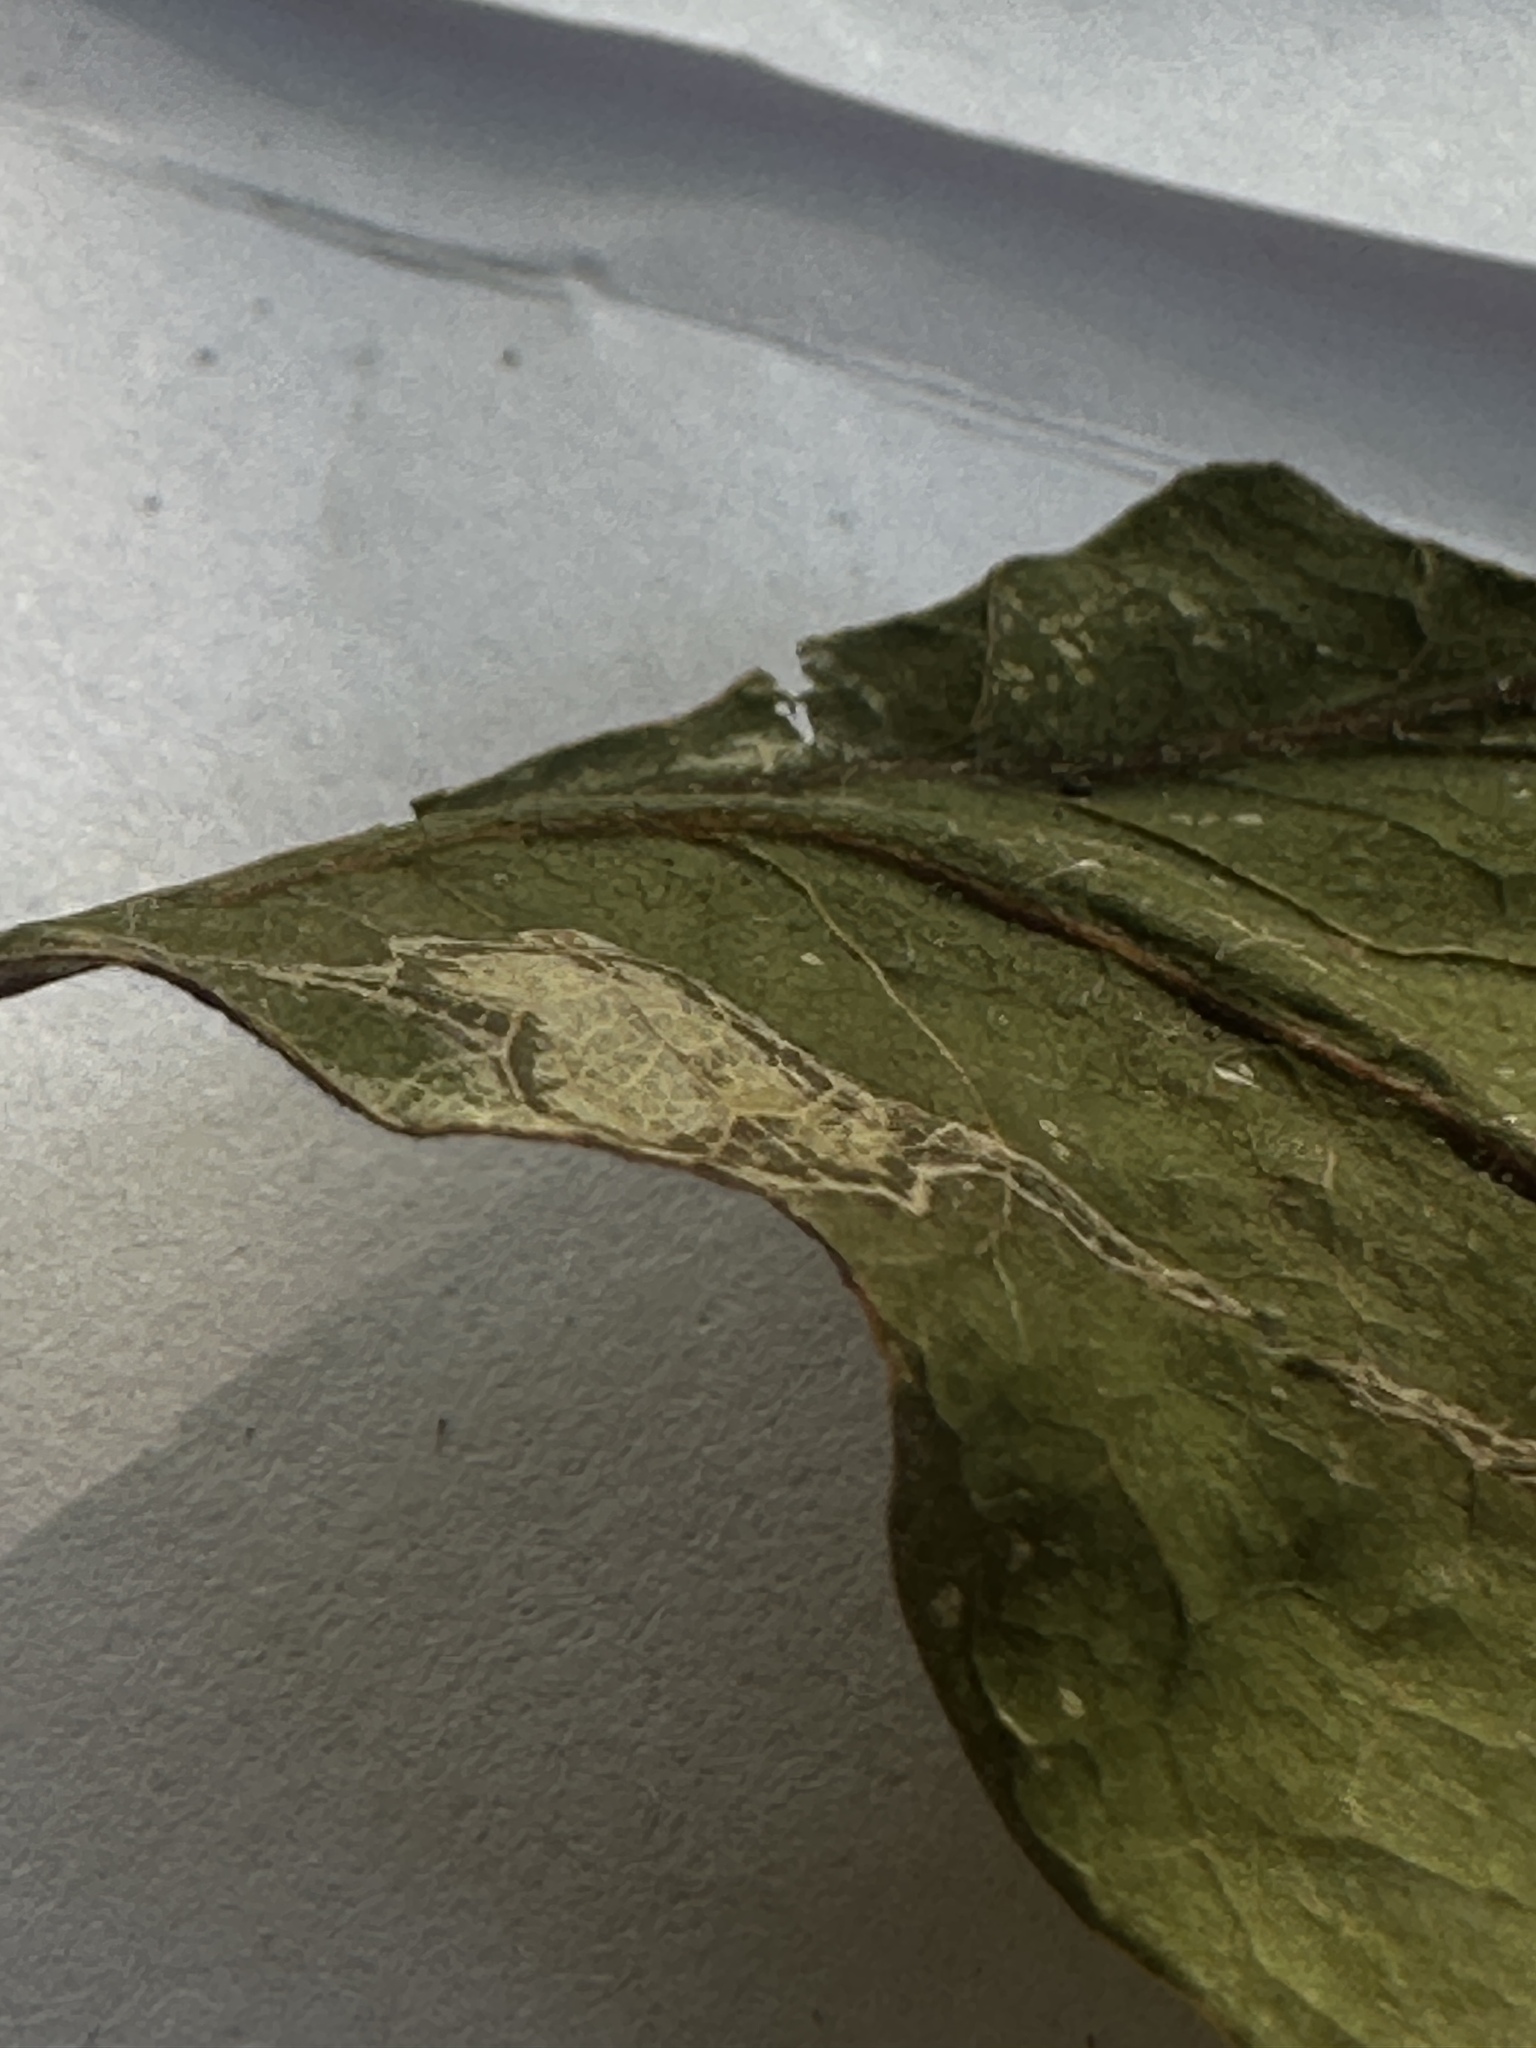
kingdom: Animalia
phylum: Arthropoda
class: Insecta
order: Hymenoptera
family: Cynipidae
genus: Neuroterus
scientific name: Neuroterus quercusbaccarum
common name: Common spangle gall
